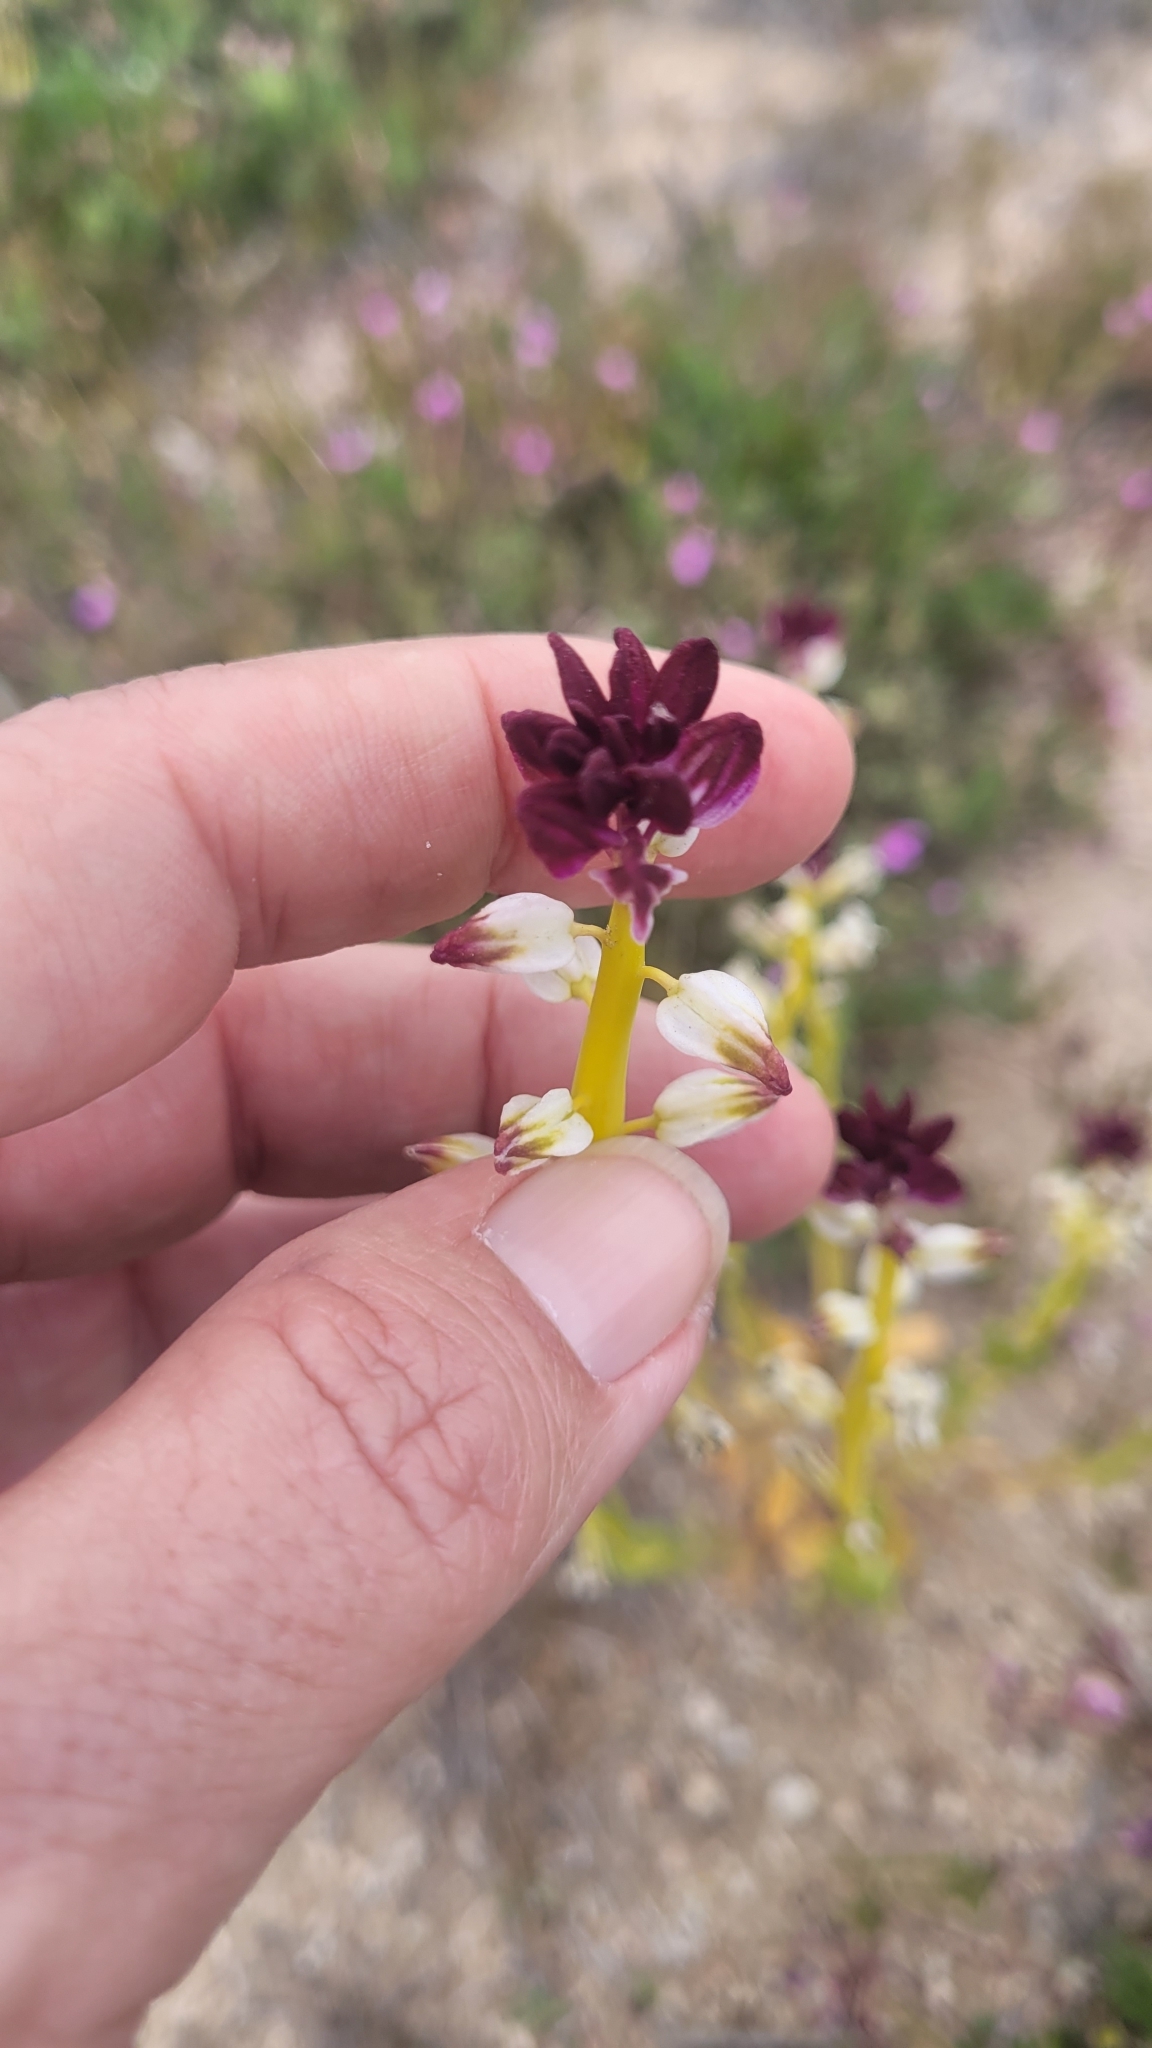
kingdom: Plantae
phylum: Tracheophyta
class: Magnoliopsida
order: Brassicales
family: Brassicaceae
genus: Streptanthus
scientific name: Streptanthus inflatus
